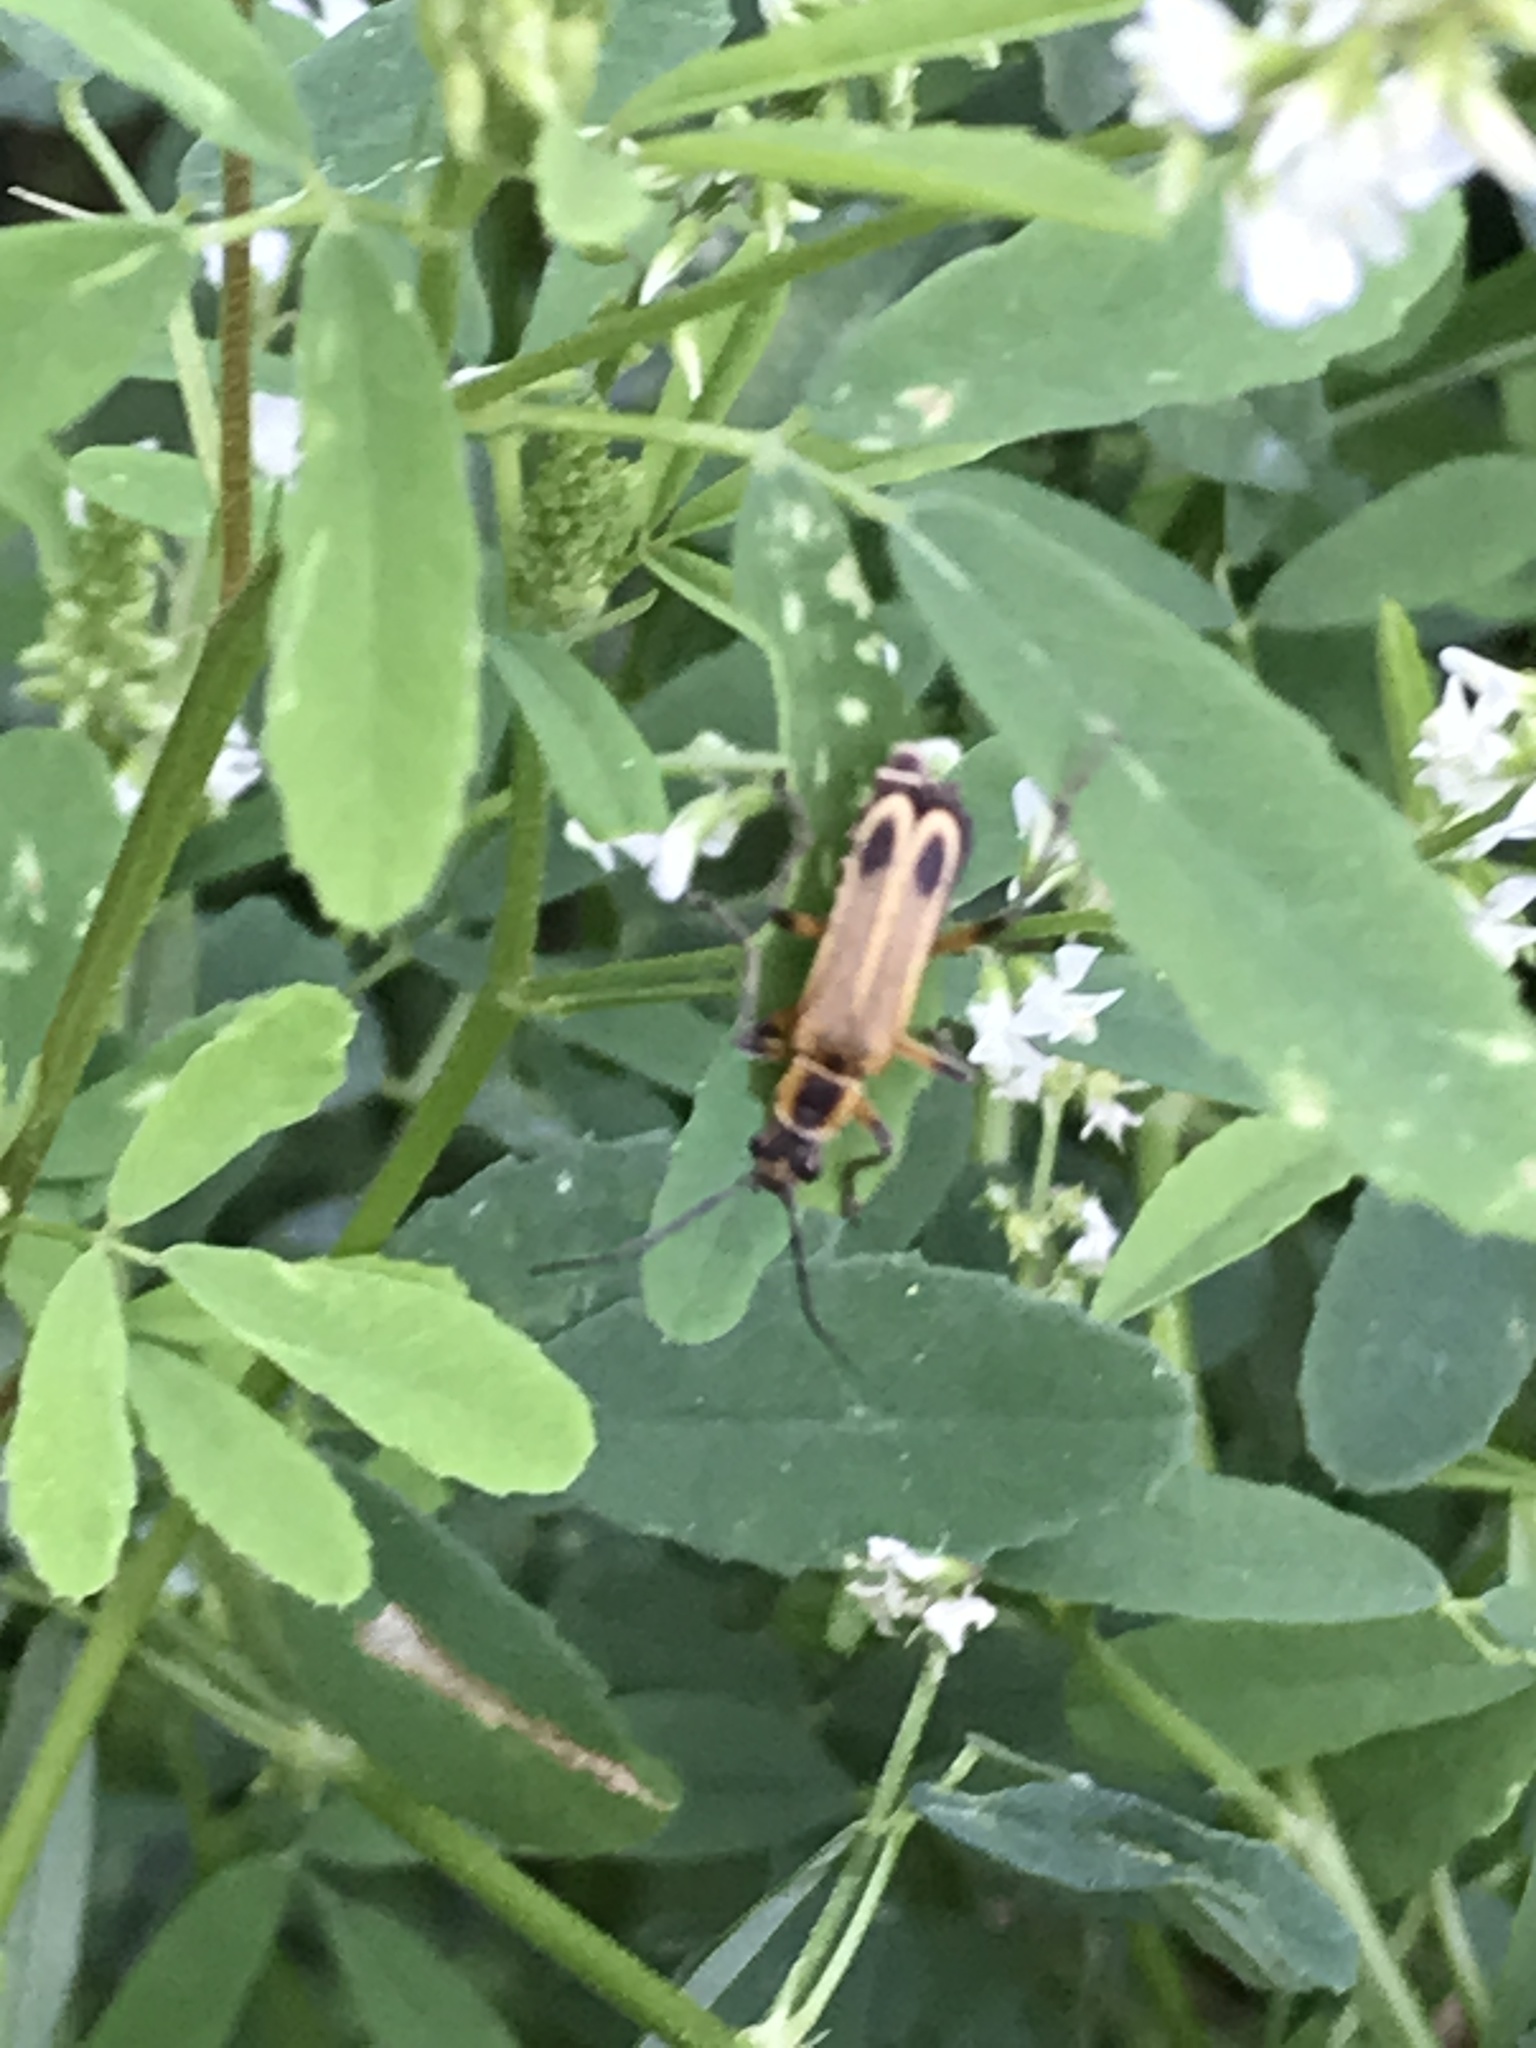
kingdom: Animalia
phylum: Arthropoda
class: Insecta
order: Coleoptera
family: Cantharidae
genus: Chauliognathus
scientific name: Chauliognathus marginatus
